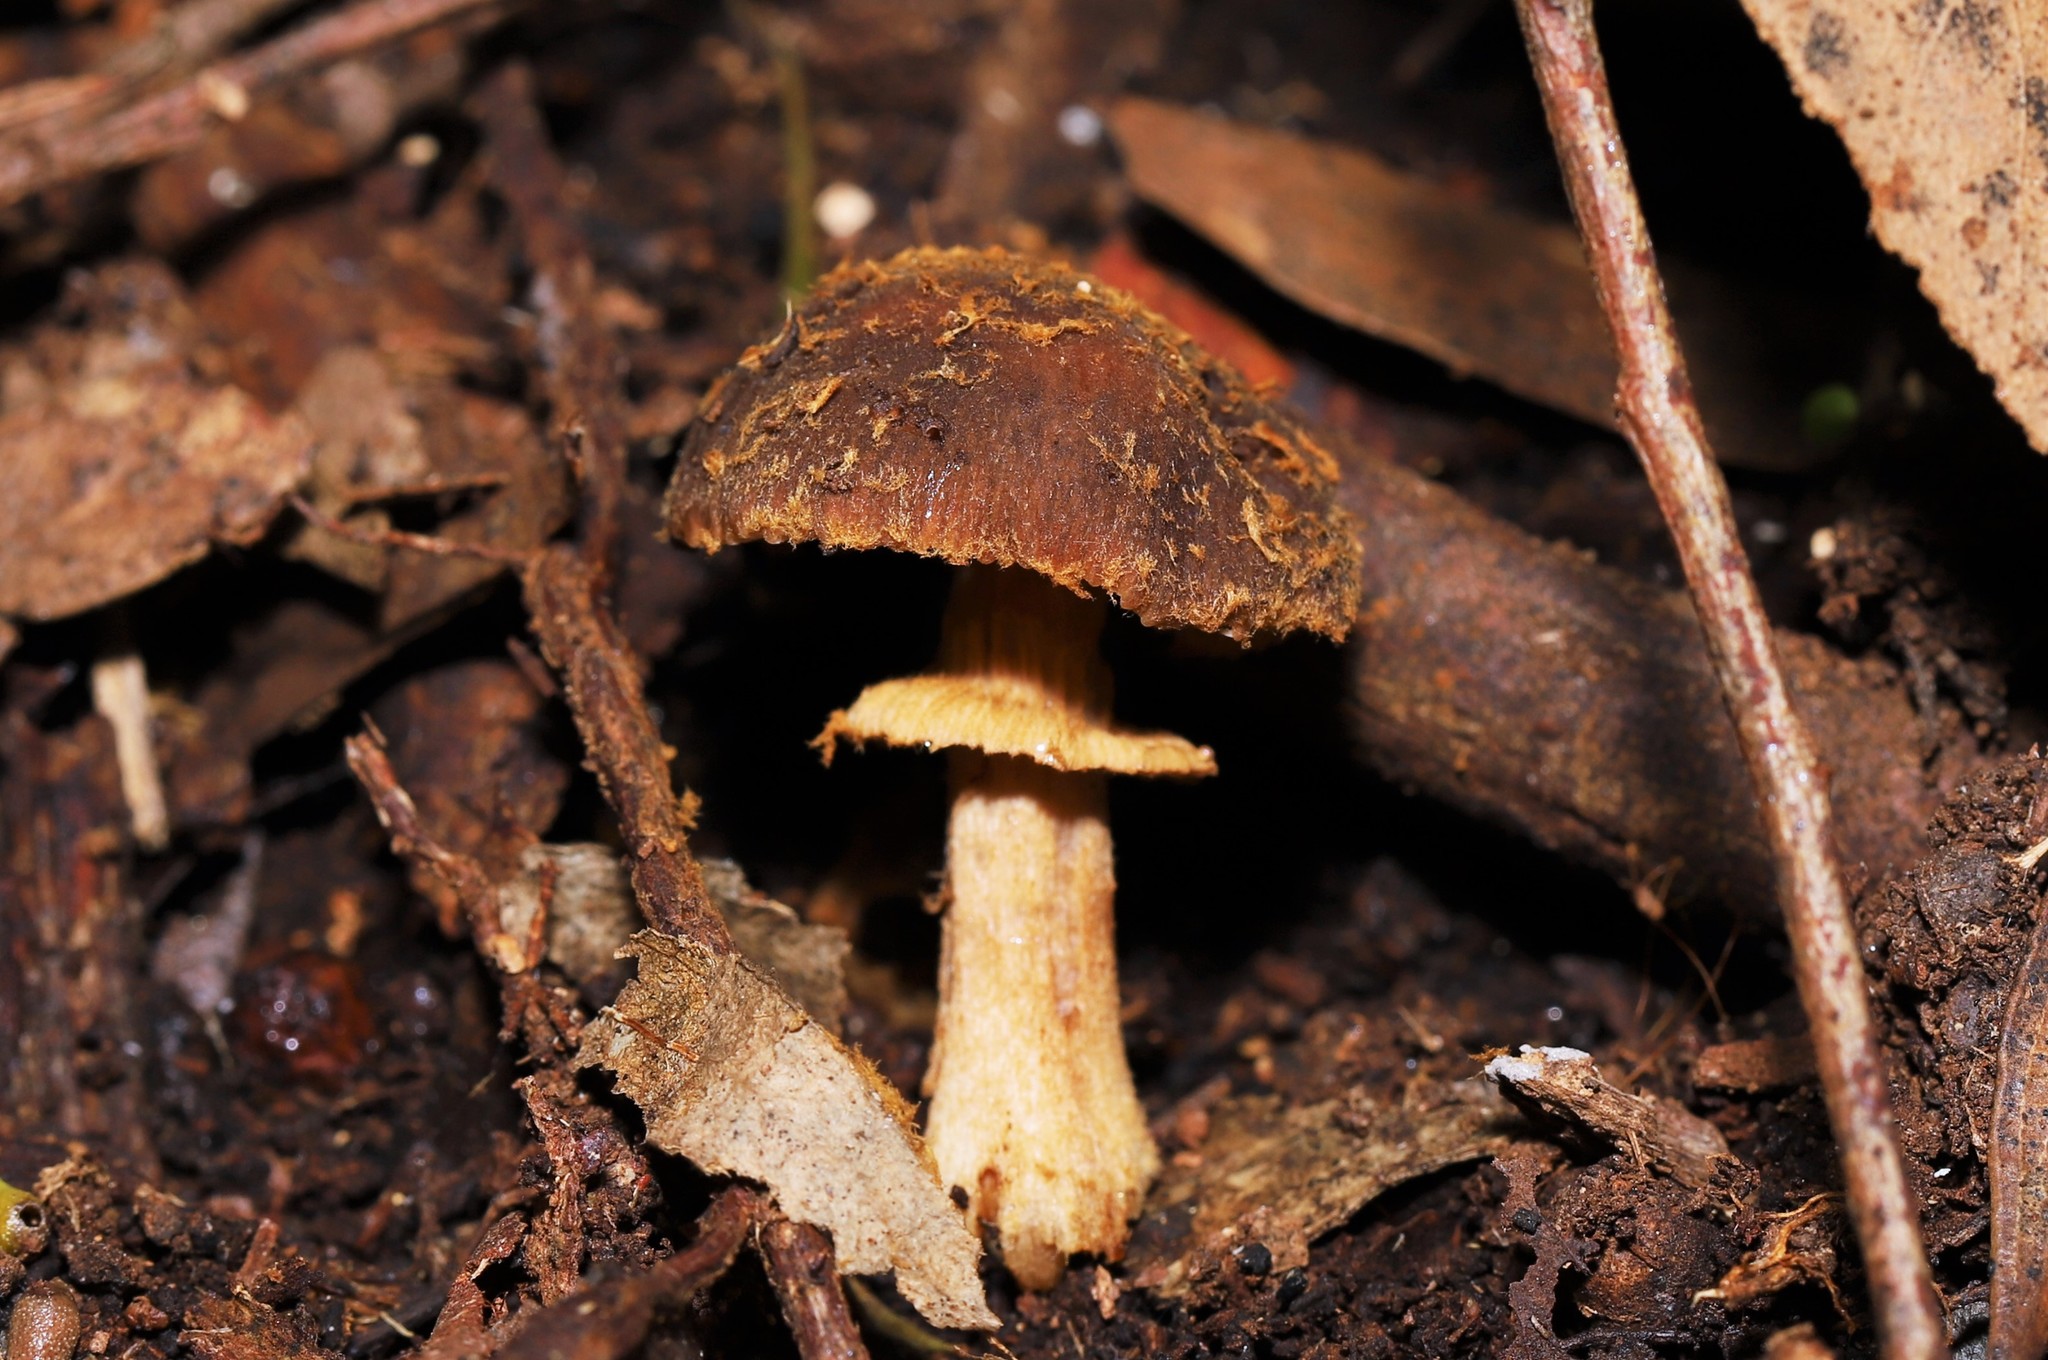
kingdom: Fungi
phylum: Basidiomycota
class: Agaricomycetes
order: Agaricales
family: Bolbitiaceae
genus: Descolea
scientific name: Descolea recedens
